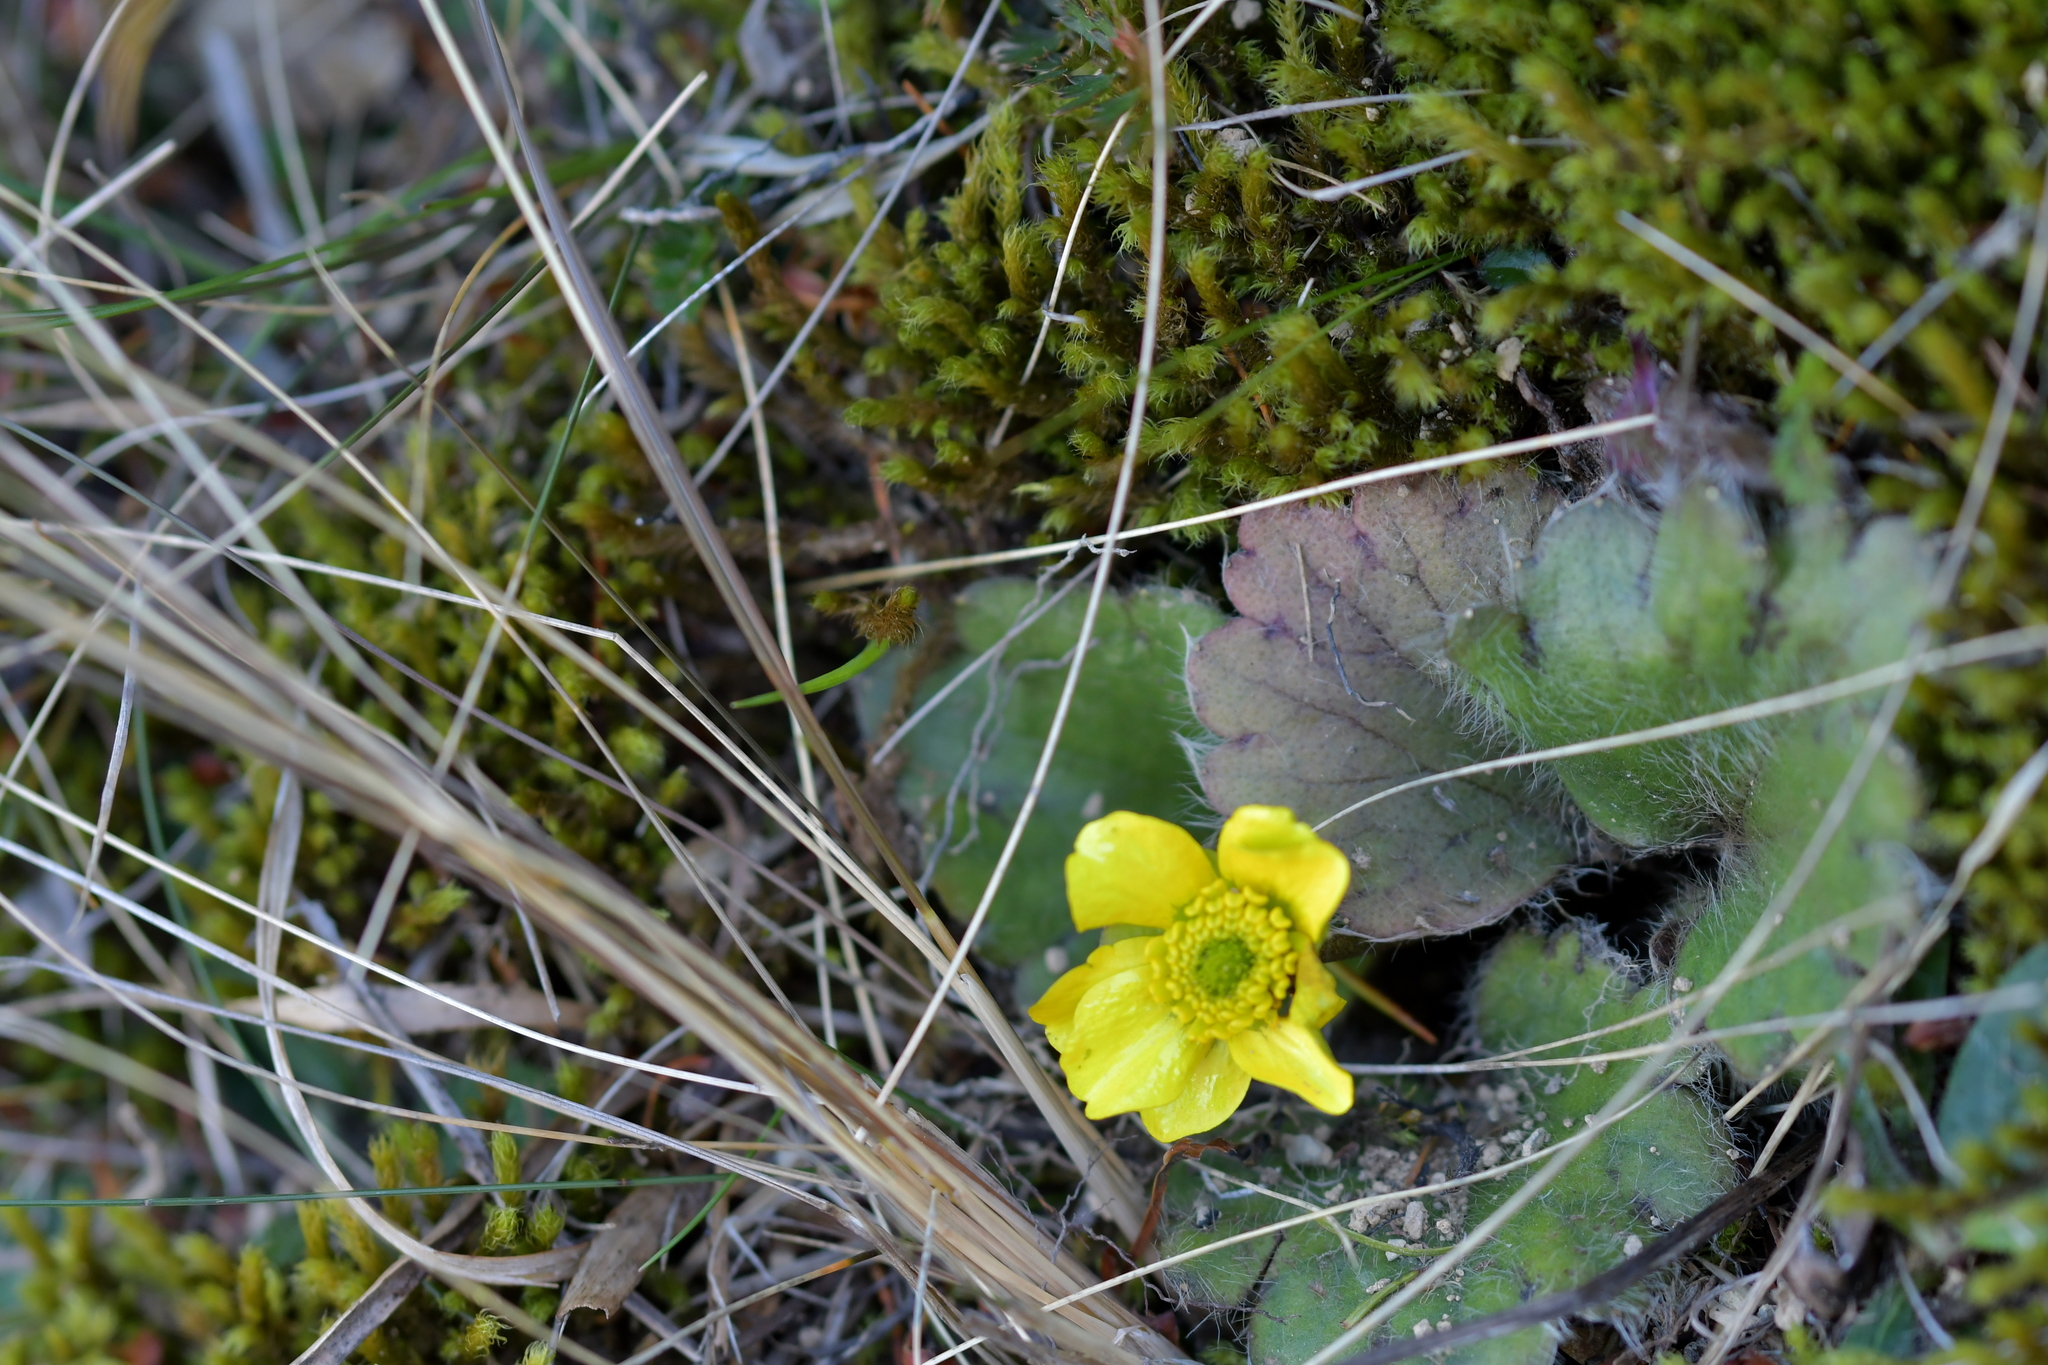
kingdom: Plantae
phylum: Tracheophyta
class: Magnoliopsida
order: Ranunculales
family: Ranunculaceae
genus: Ranunculus
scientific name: Ranunculus insignis
